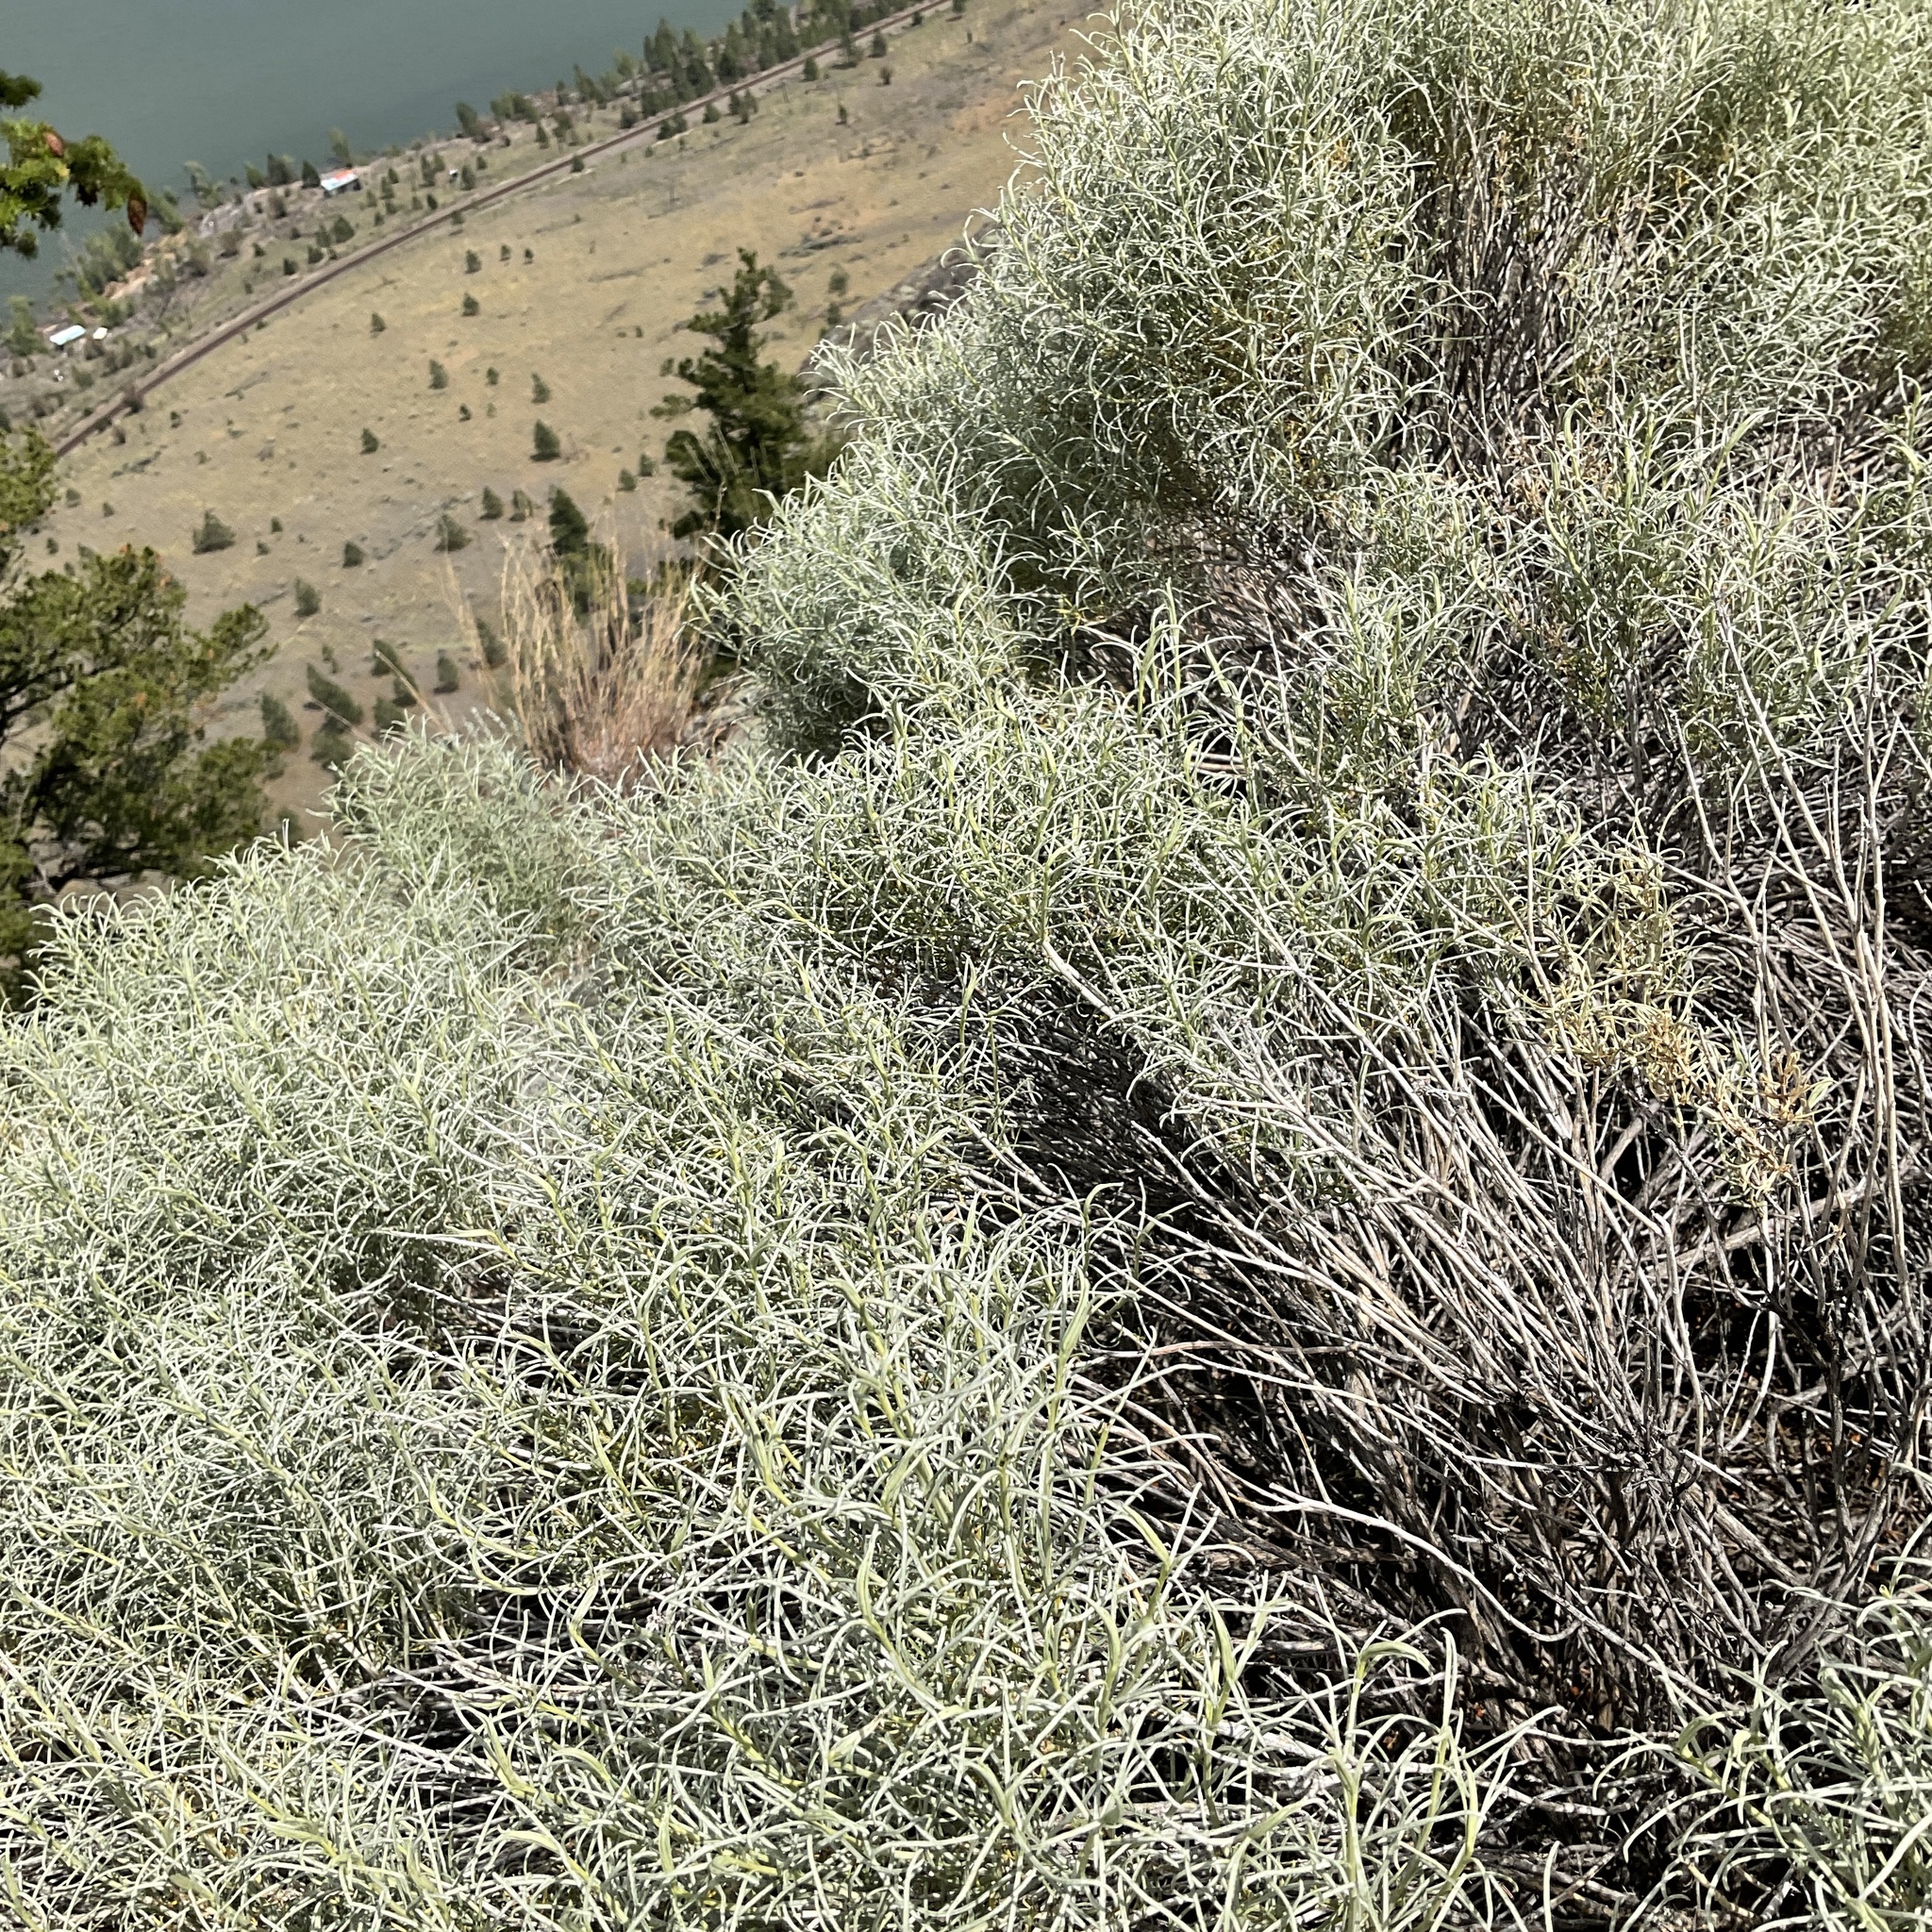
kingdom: Plantae
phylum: Tracheophyta
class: Magnoliopsida
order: Asterales
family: Asteraceae
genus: Ericameria
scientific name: Ericameria nauseosa
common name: Rubber rabbitbrush
